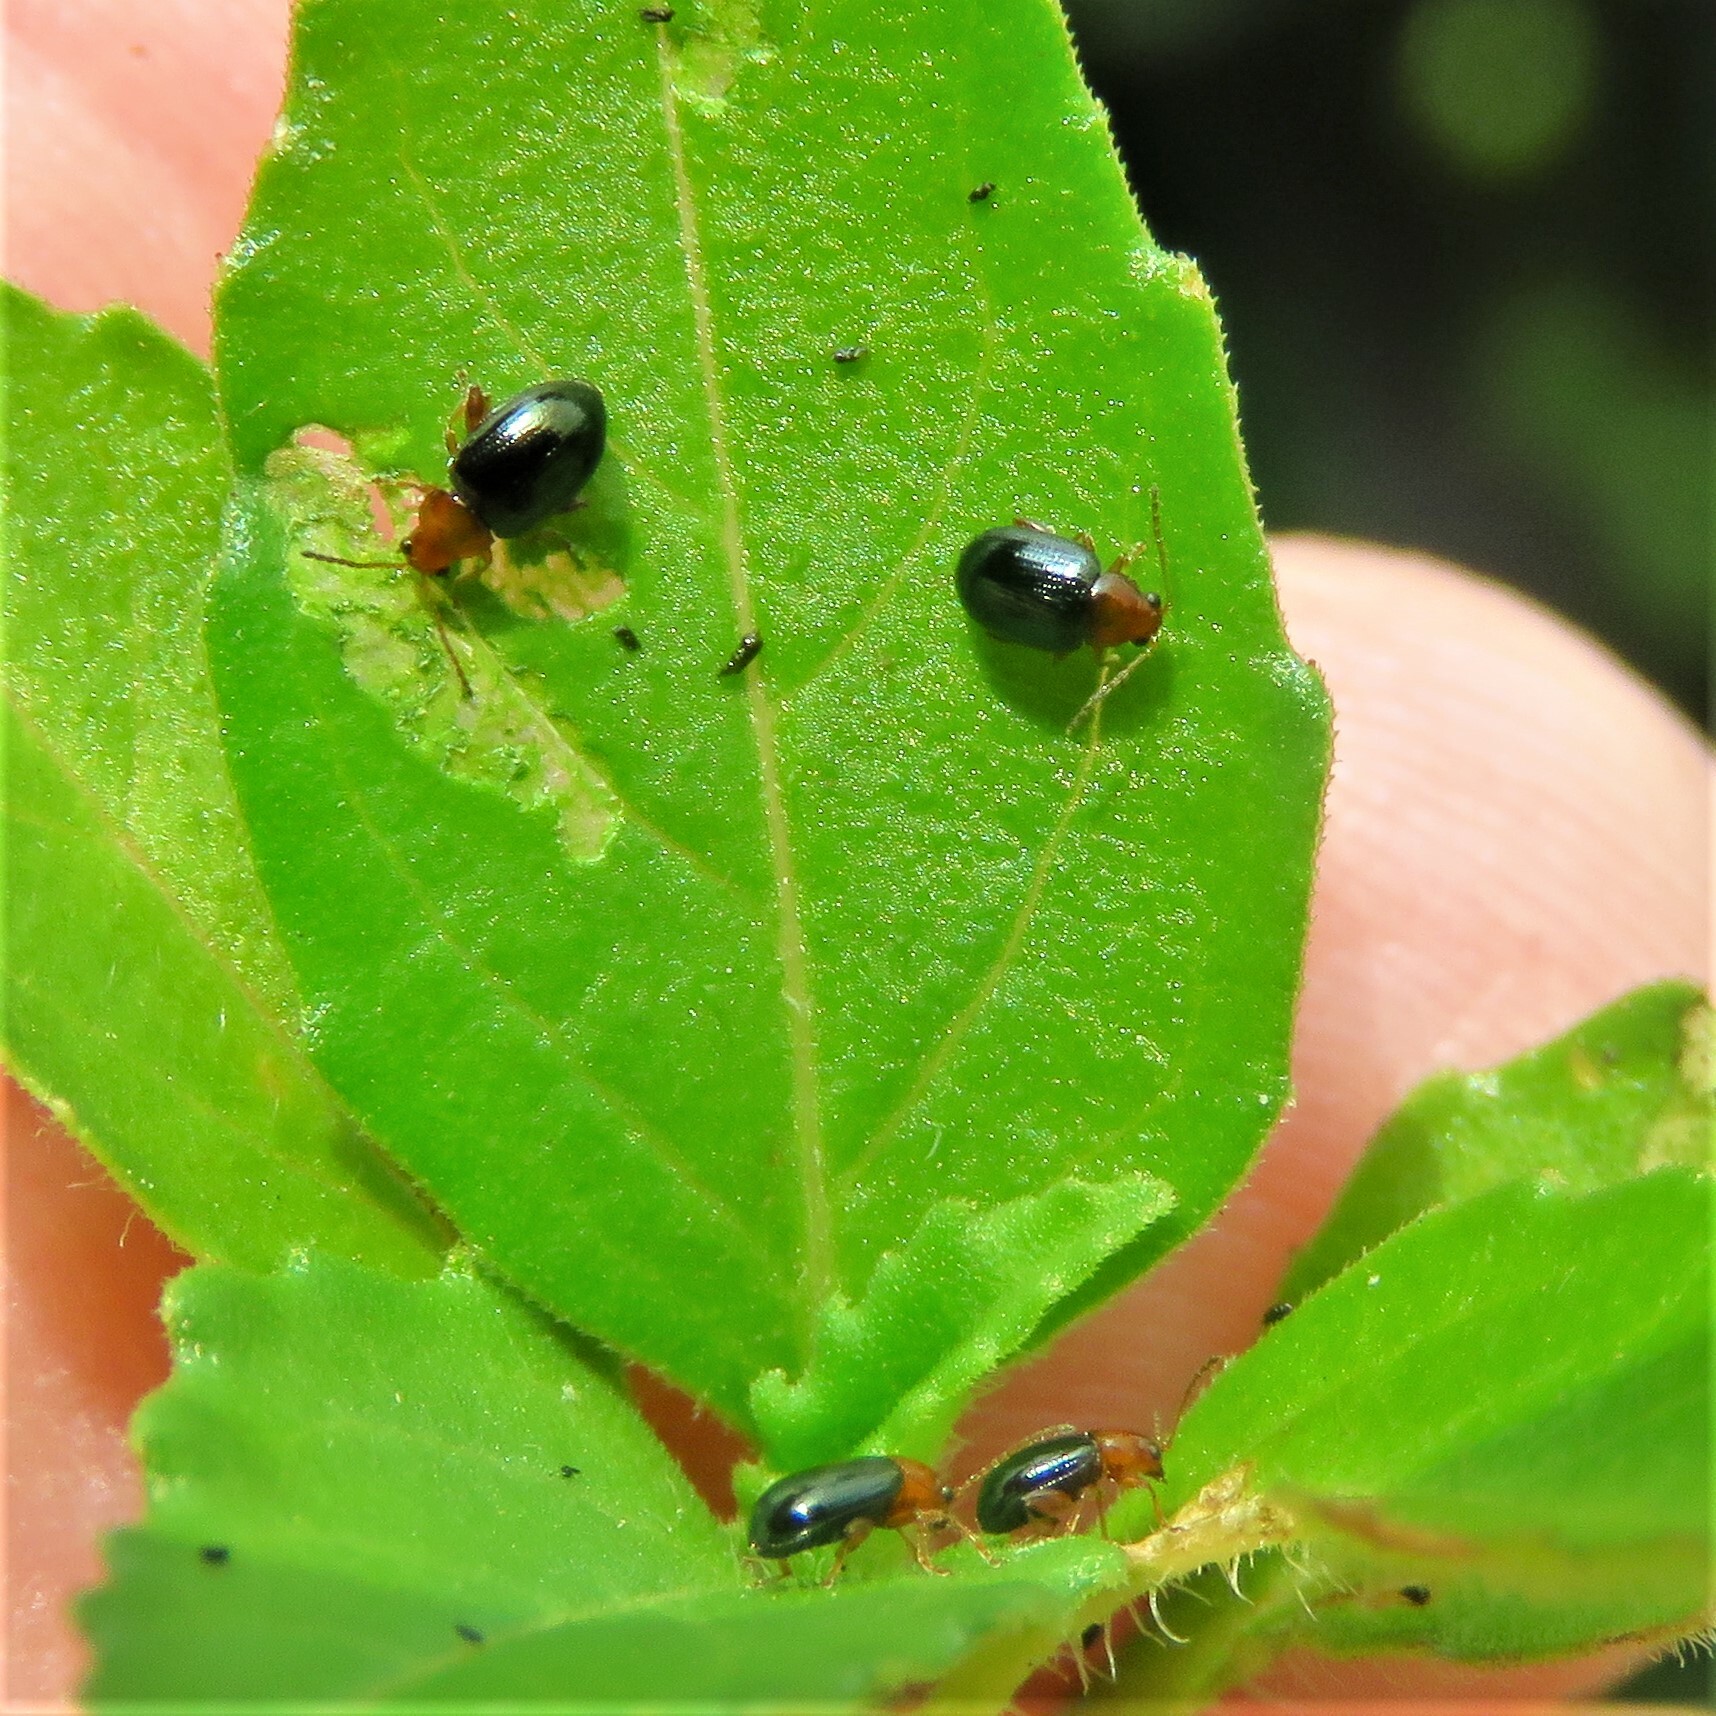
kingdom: Animalia
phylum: Arthropoda
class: Insecta
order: Coleoptera
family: Chrysomelidae
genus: Glyptina
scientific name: Glyptina cyanipennis
